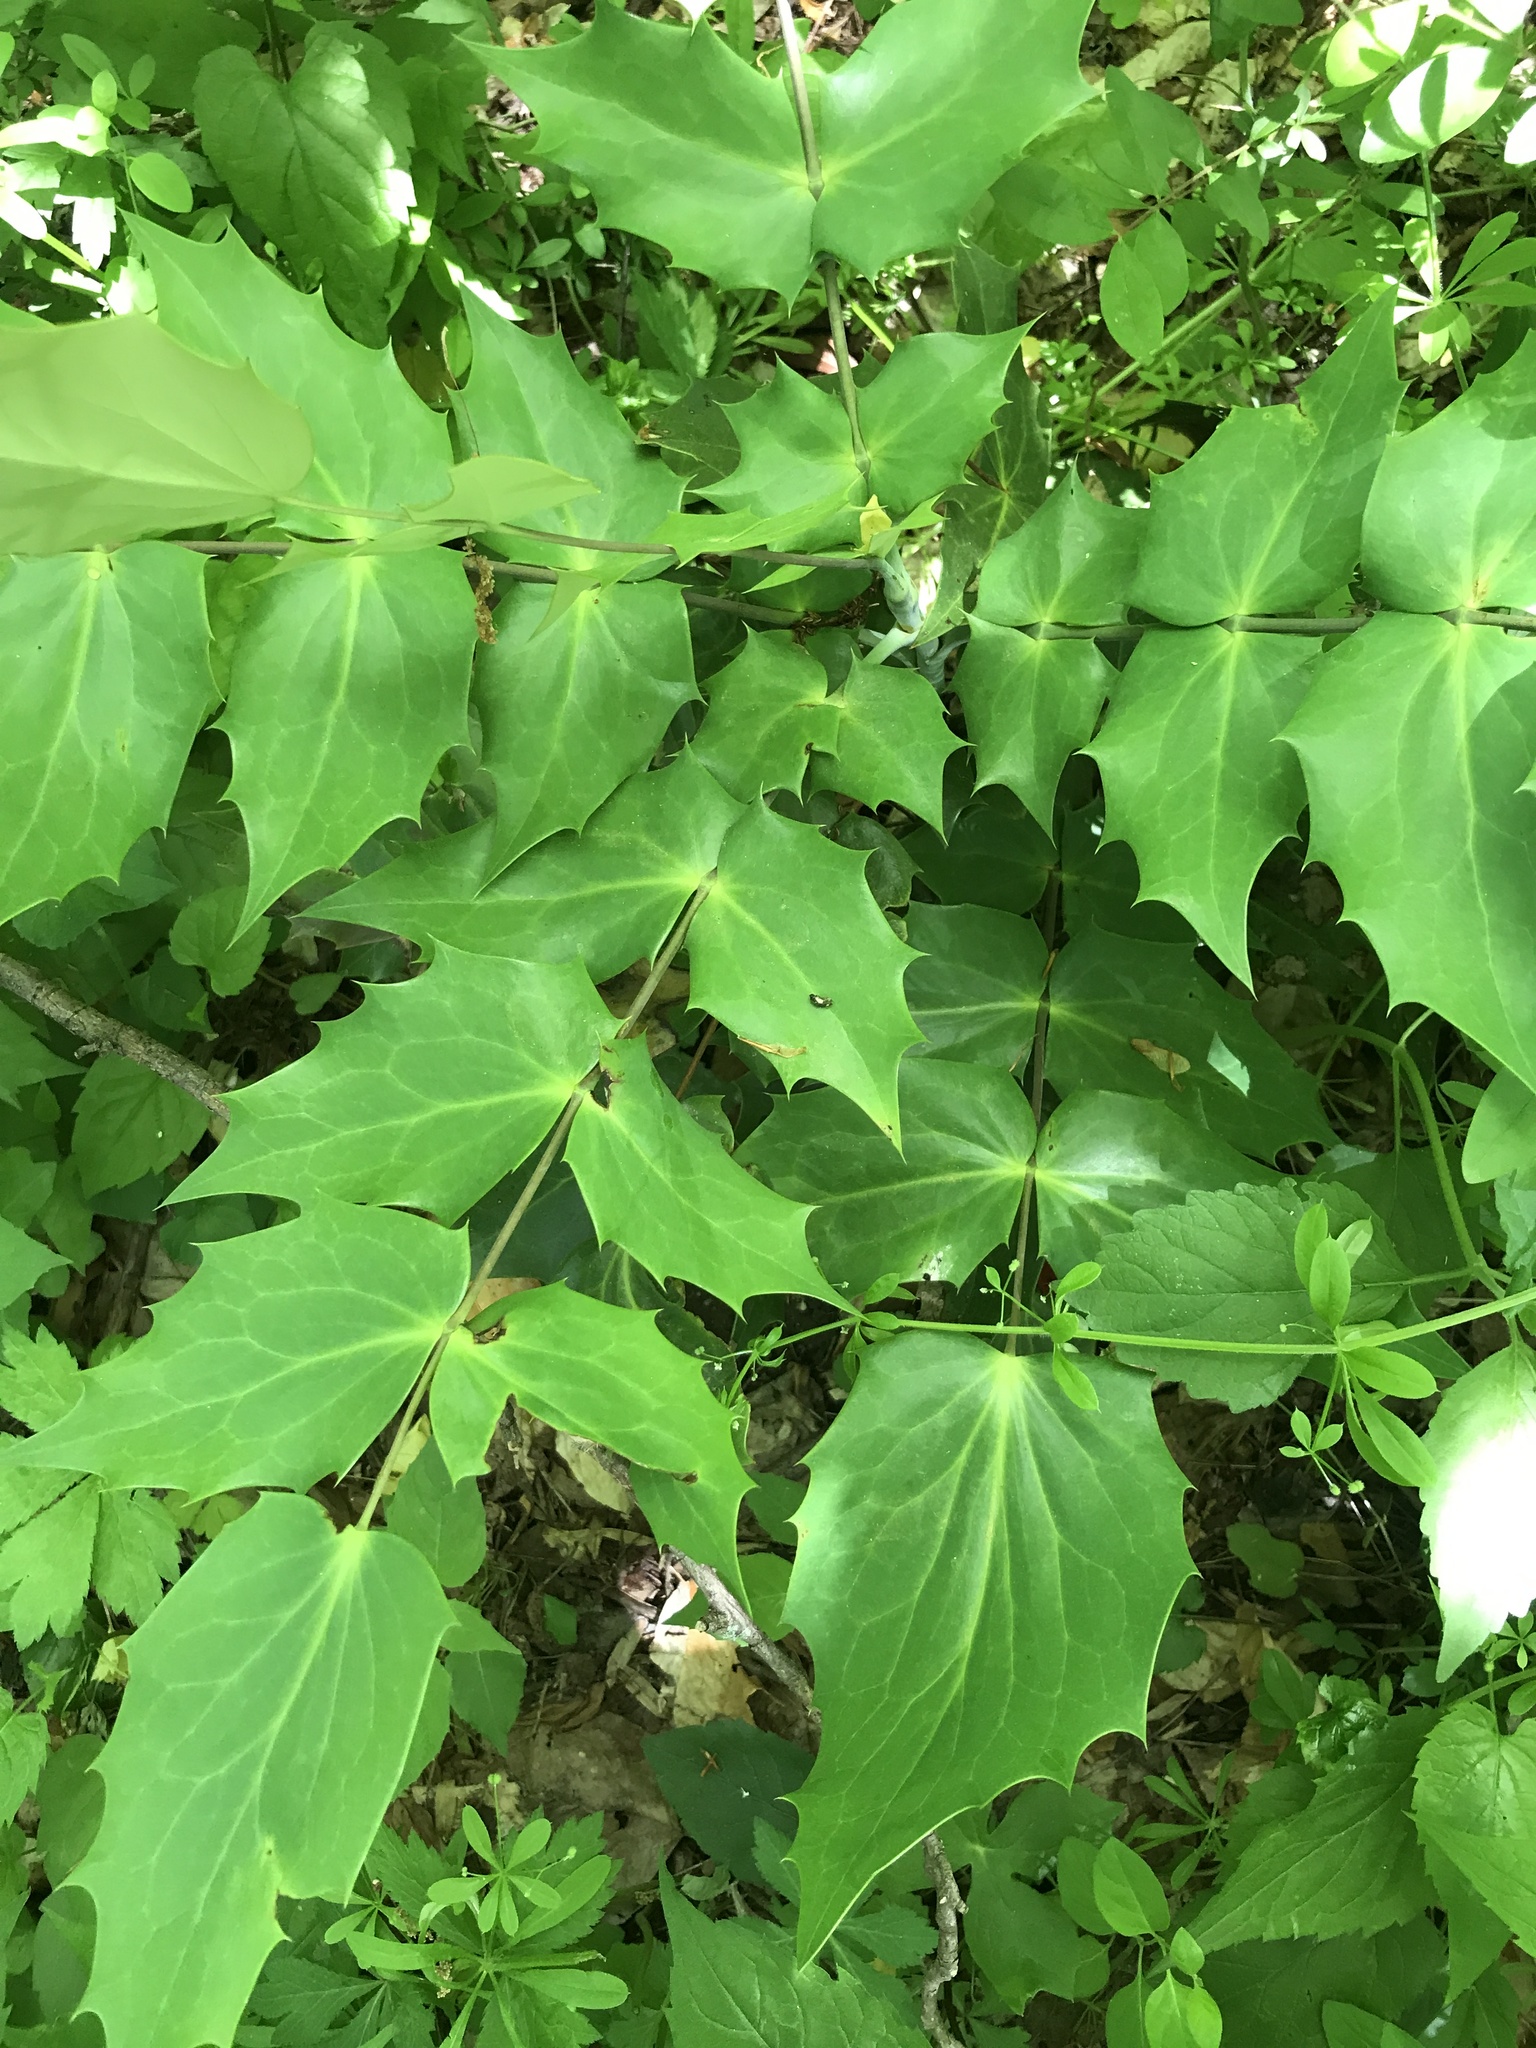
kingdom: Plantae
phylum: Tracheophyta
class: Magnoliopsida
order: Ranunculales
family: Berberidaceae
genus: Mahonia
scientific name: Mahonia bealei
